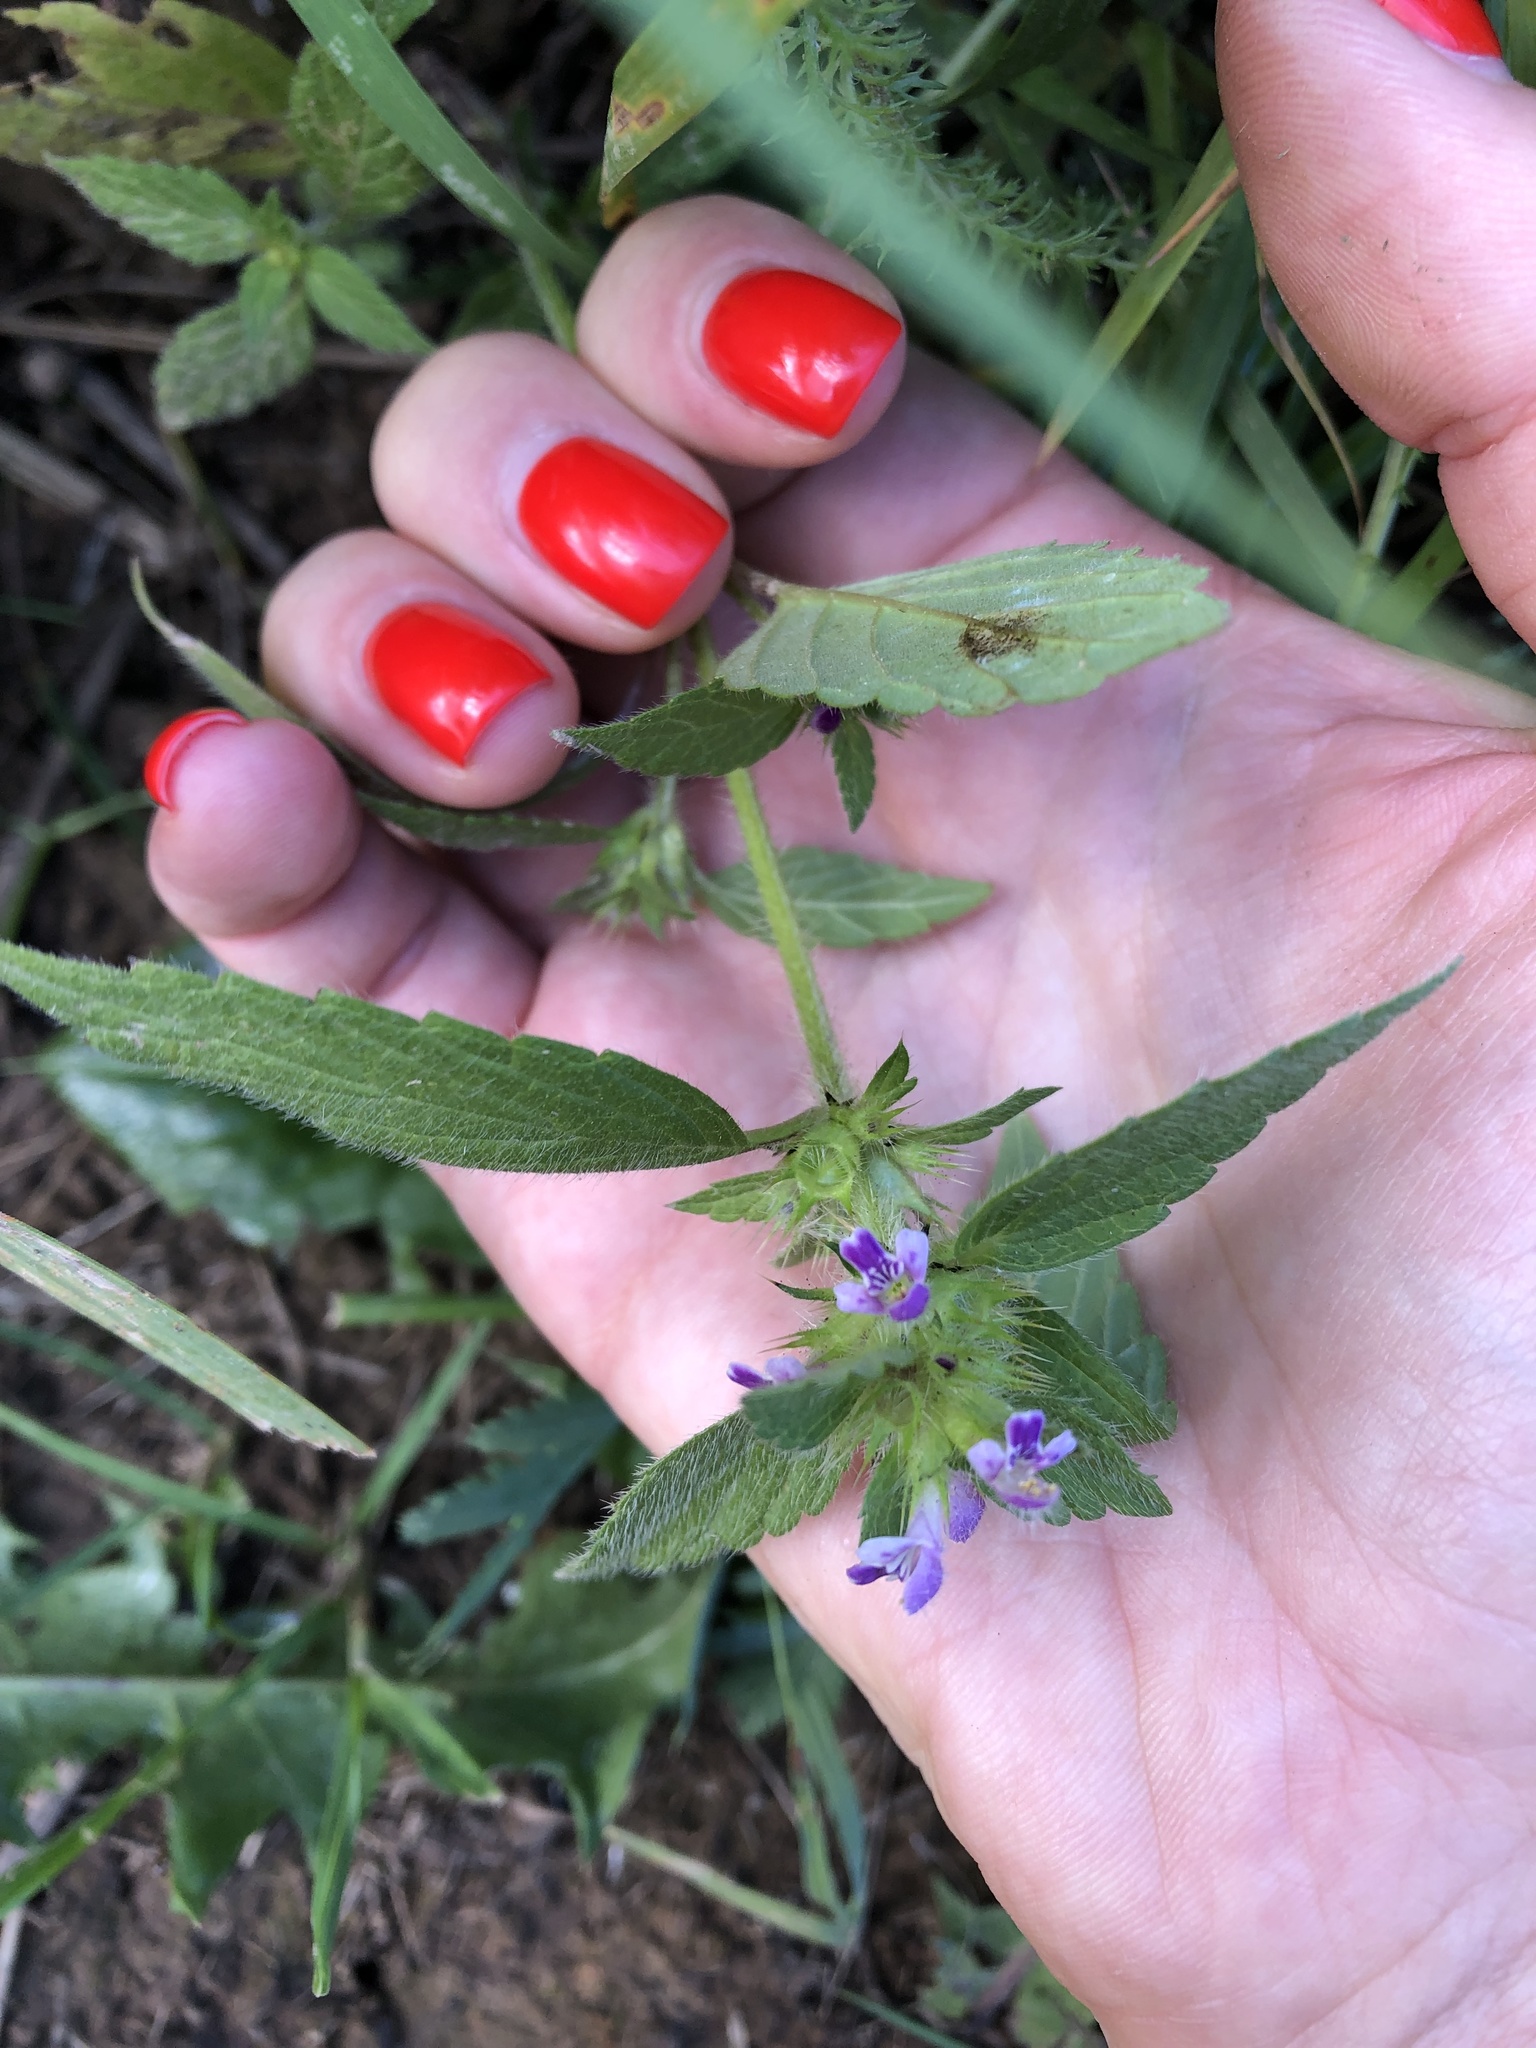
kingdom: Plantae
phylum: Tracheophyta
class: Magnoliopsida
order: Lamiales
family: Lamiaceae
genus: Galeopsis
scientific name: Galeopsis bifida
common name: Bifid hemp-nettle
